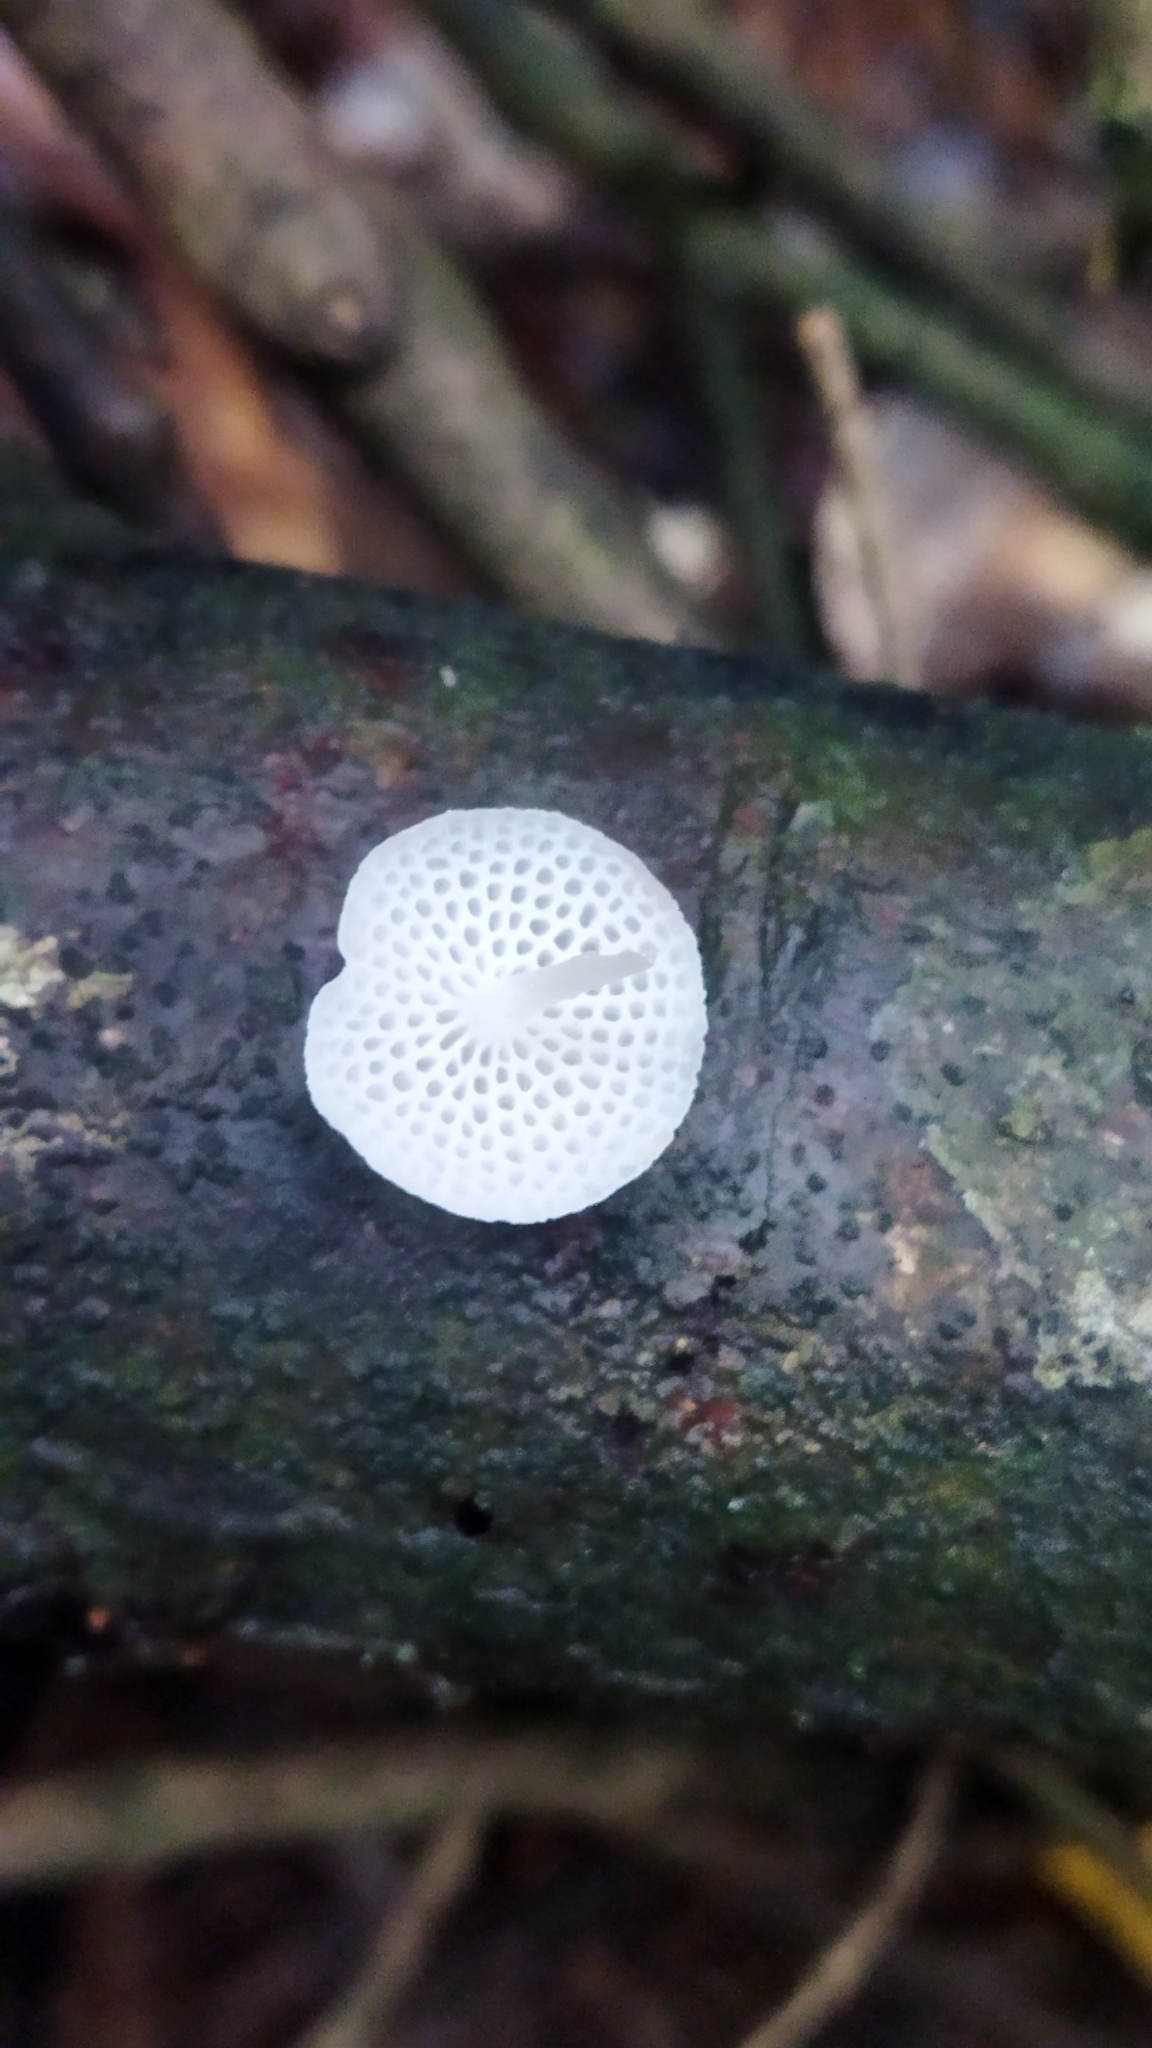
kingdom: Fungi
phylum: Basidiomycota
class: Agaricomycetes
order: Agaricales
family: Mycenaceae
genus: Filoboletus
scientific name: Filoboletus manipularis
